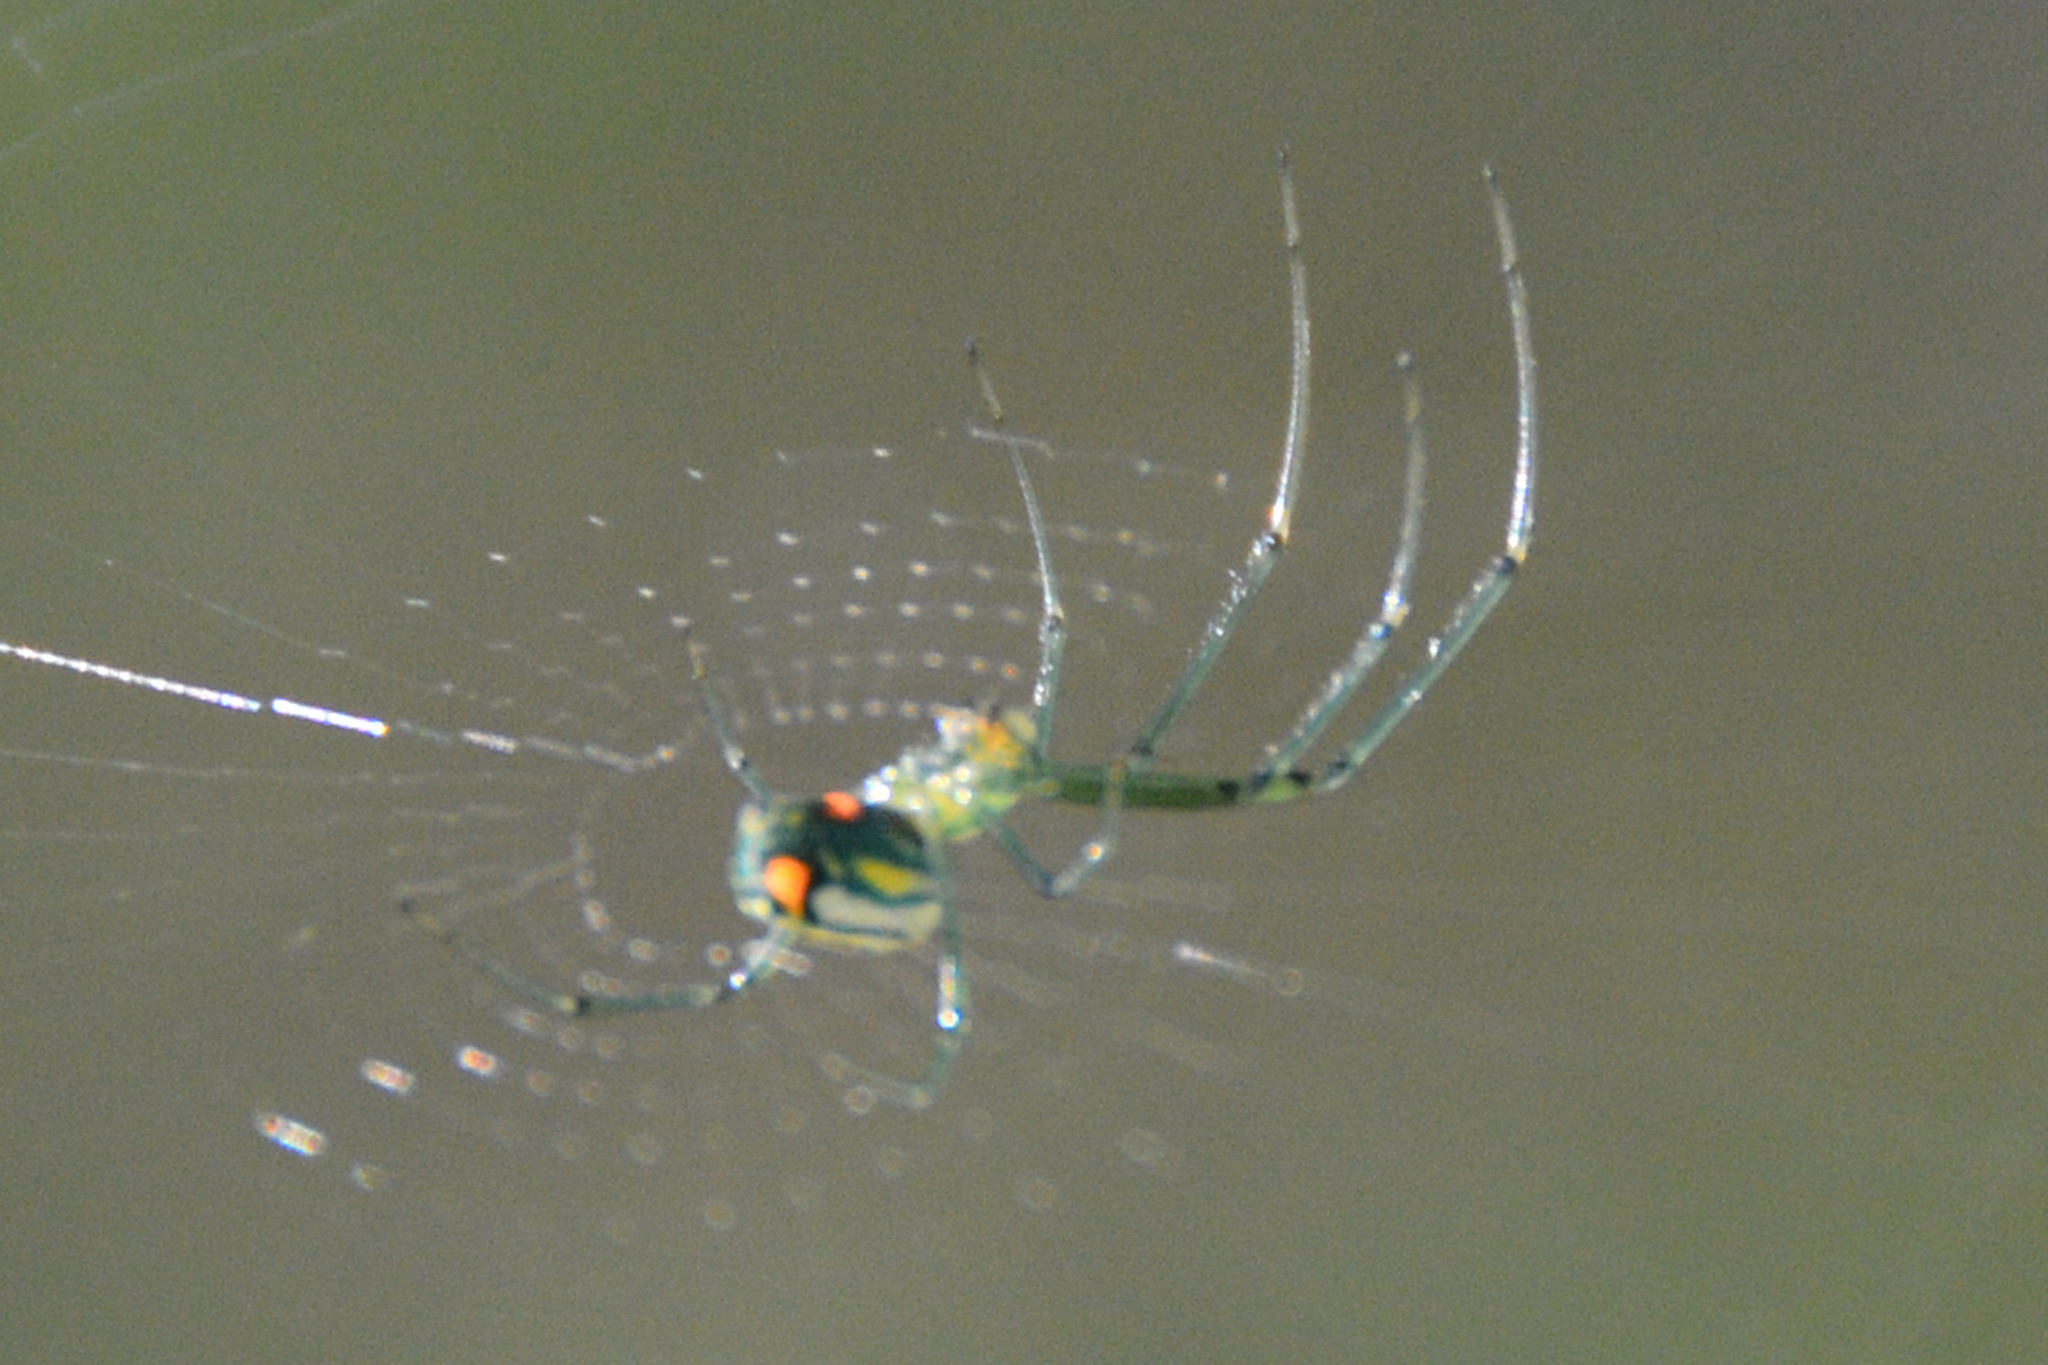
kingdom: Animalia
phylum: Arthropoda
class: Arachnida
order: Araneae
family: Tetragnathidae
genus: Leucauge
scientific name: Leucauge argyrobapta
